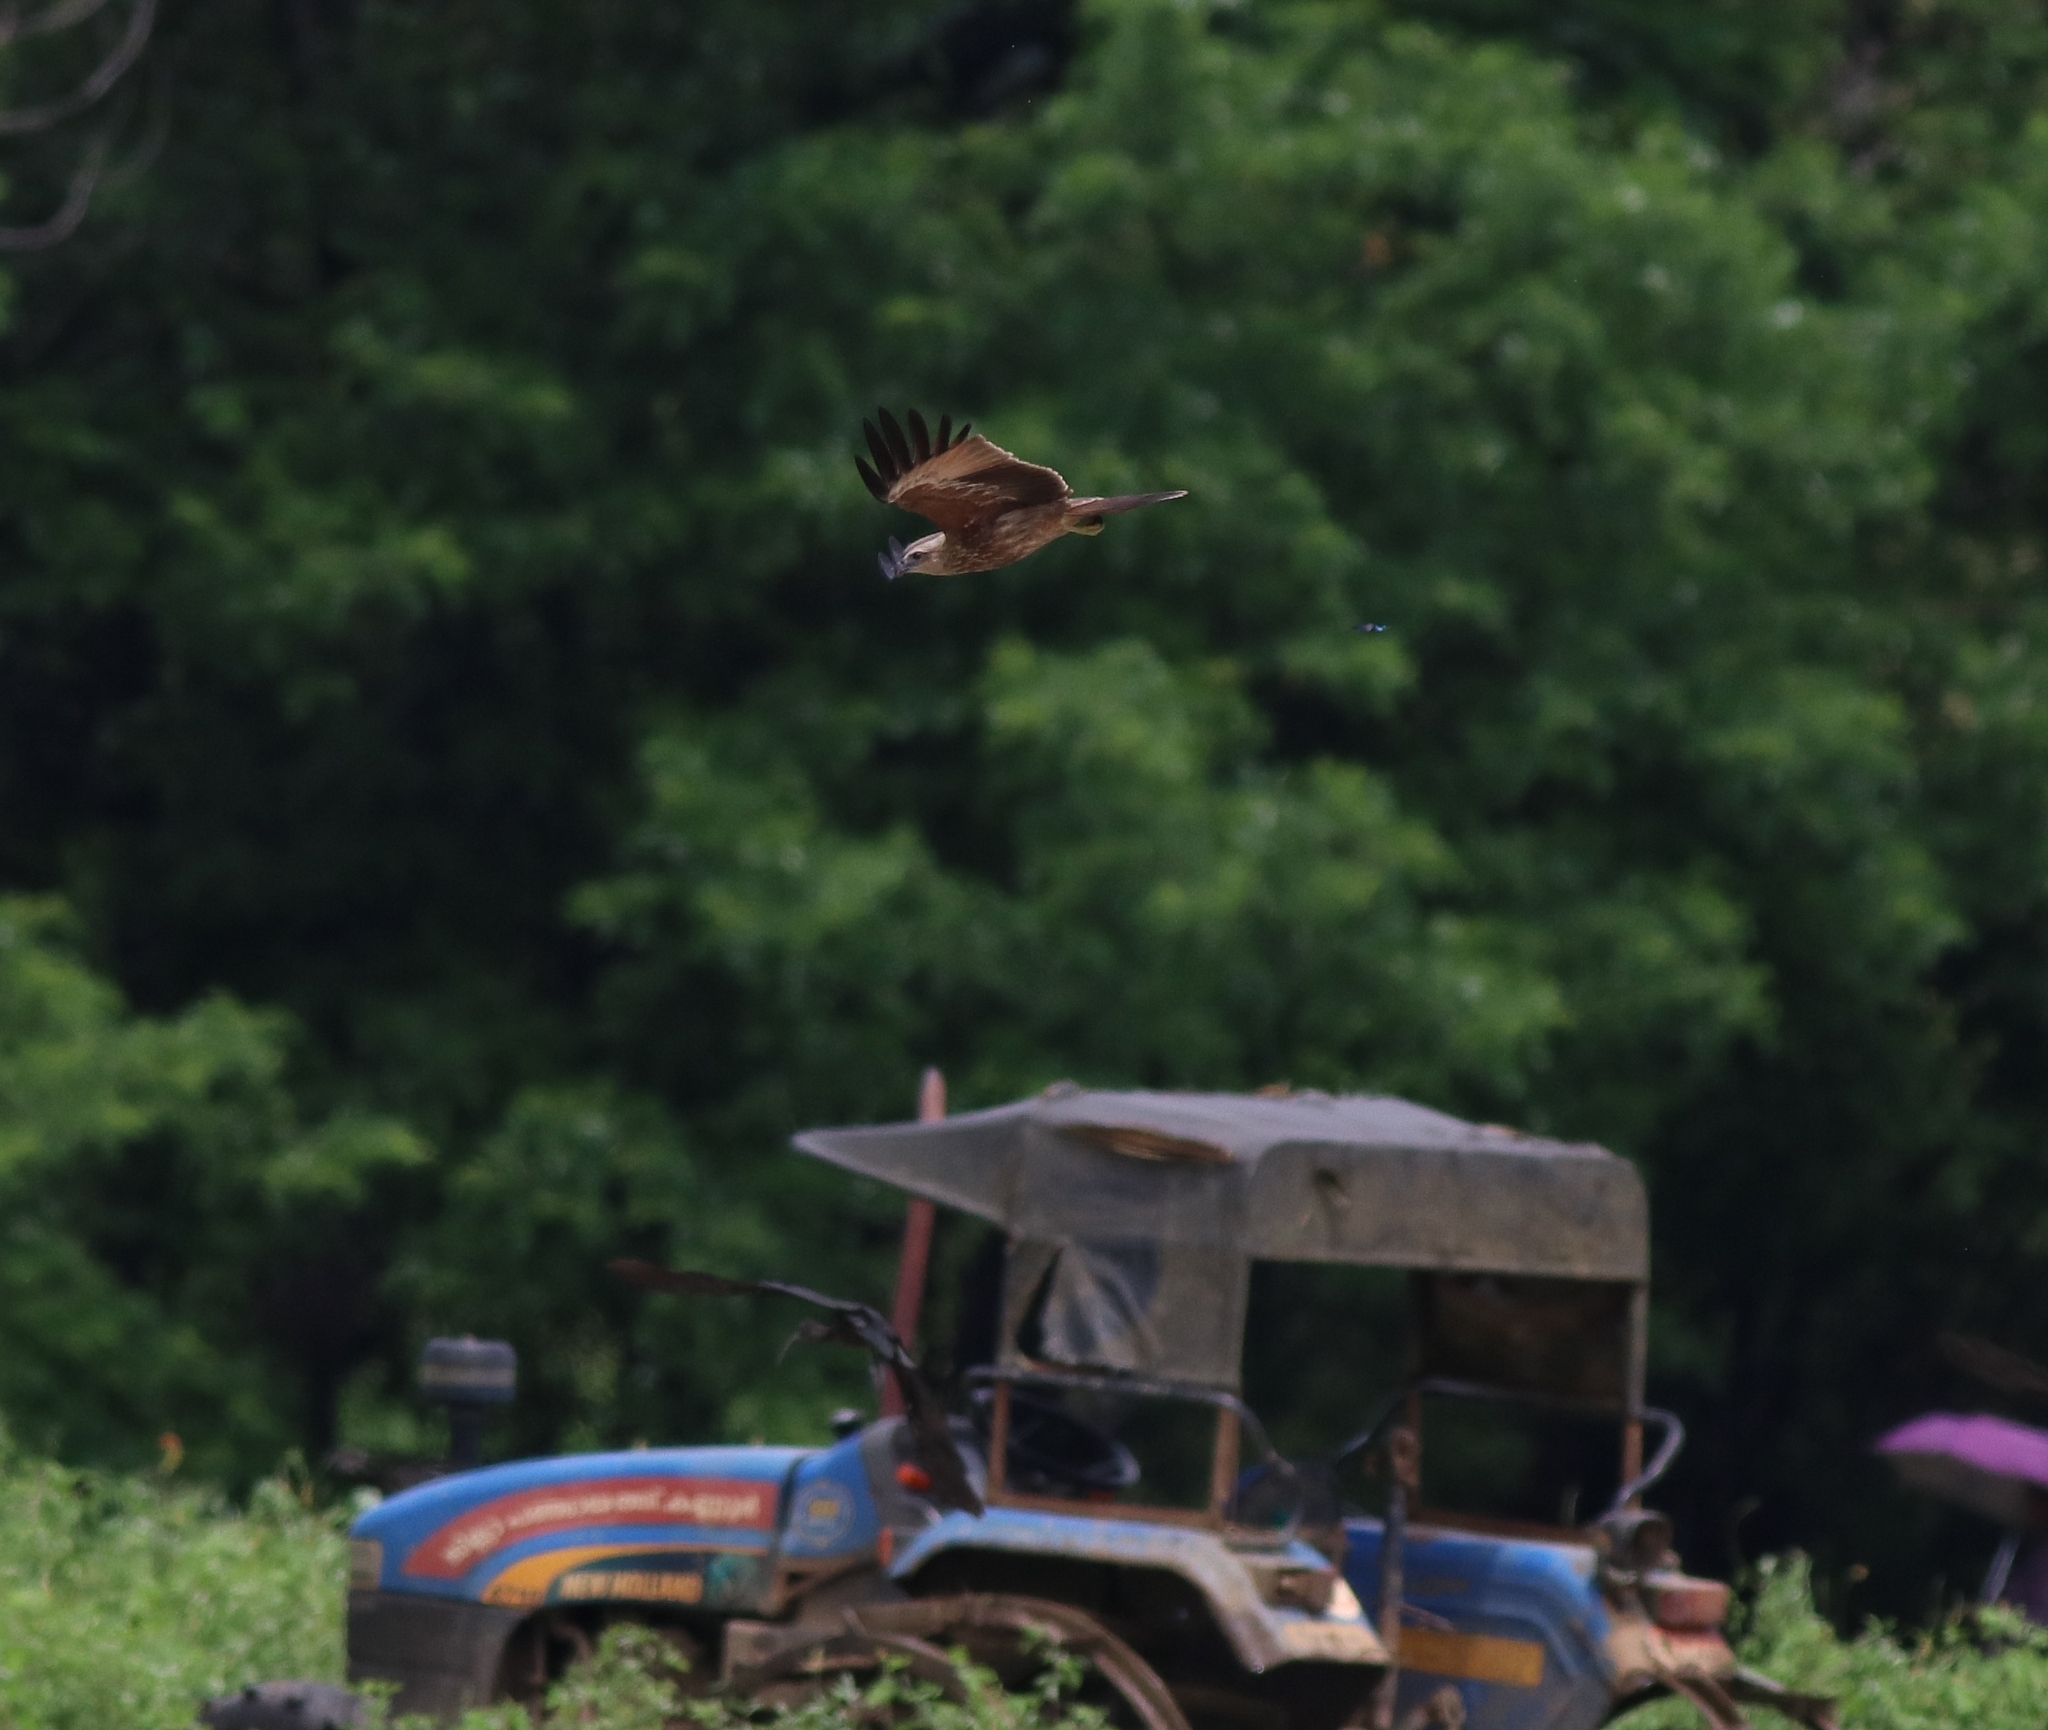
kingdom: Animalia
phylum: Chordata
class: Aves
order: Accipitriformes
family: Accipitridae
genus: Haliastur
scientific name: Haliastur indus
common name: Brahminy kite
